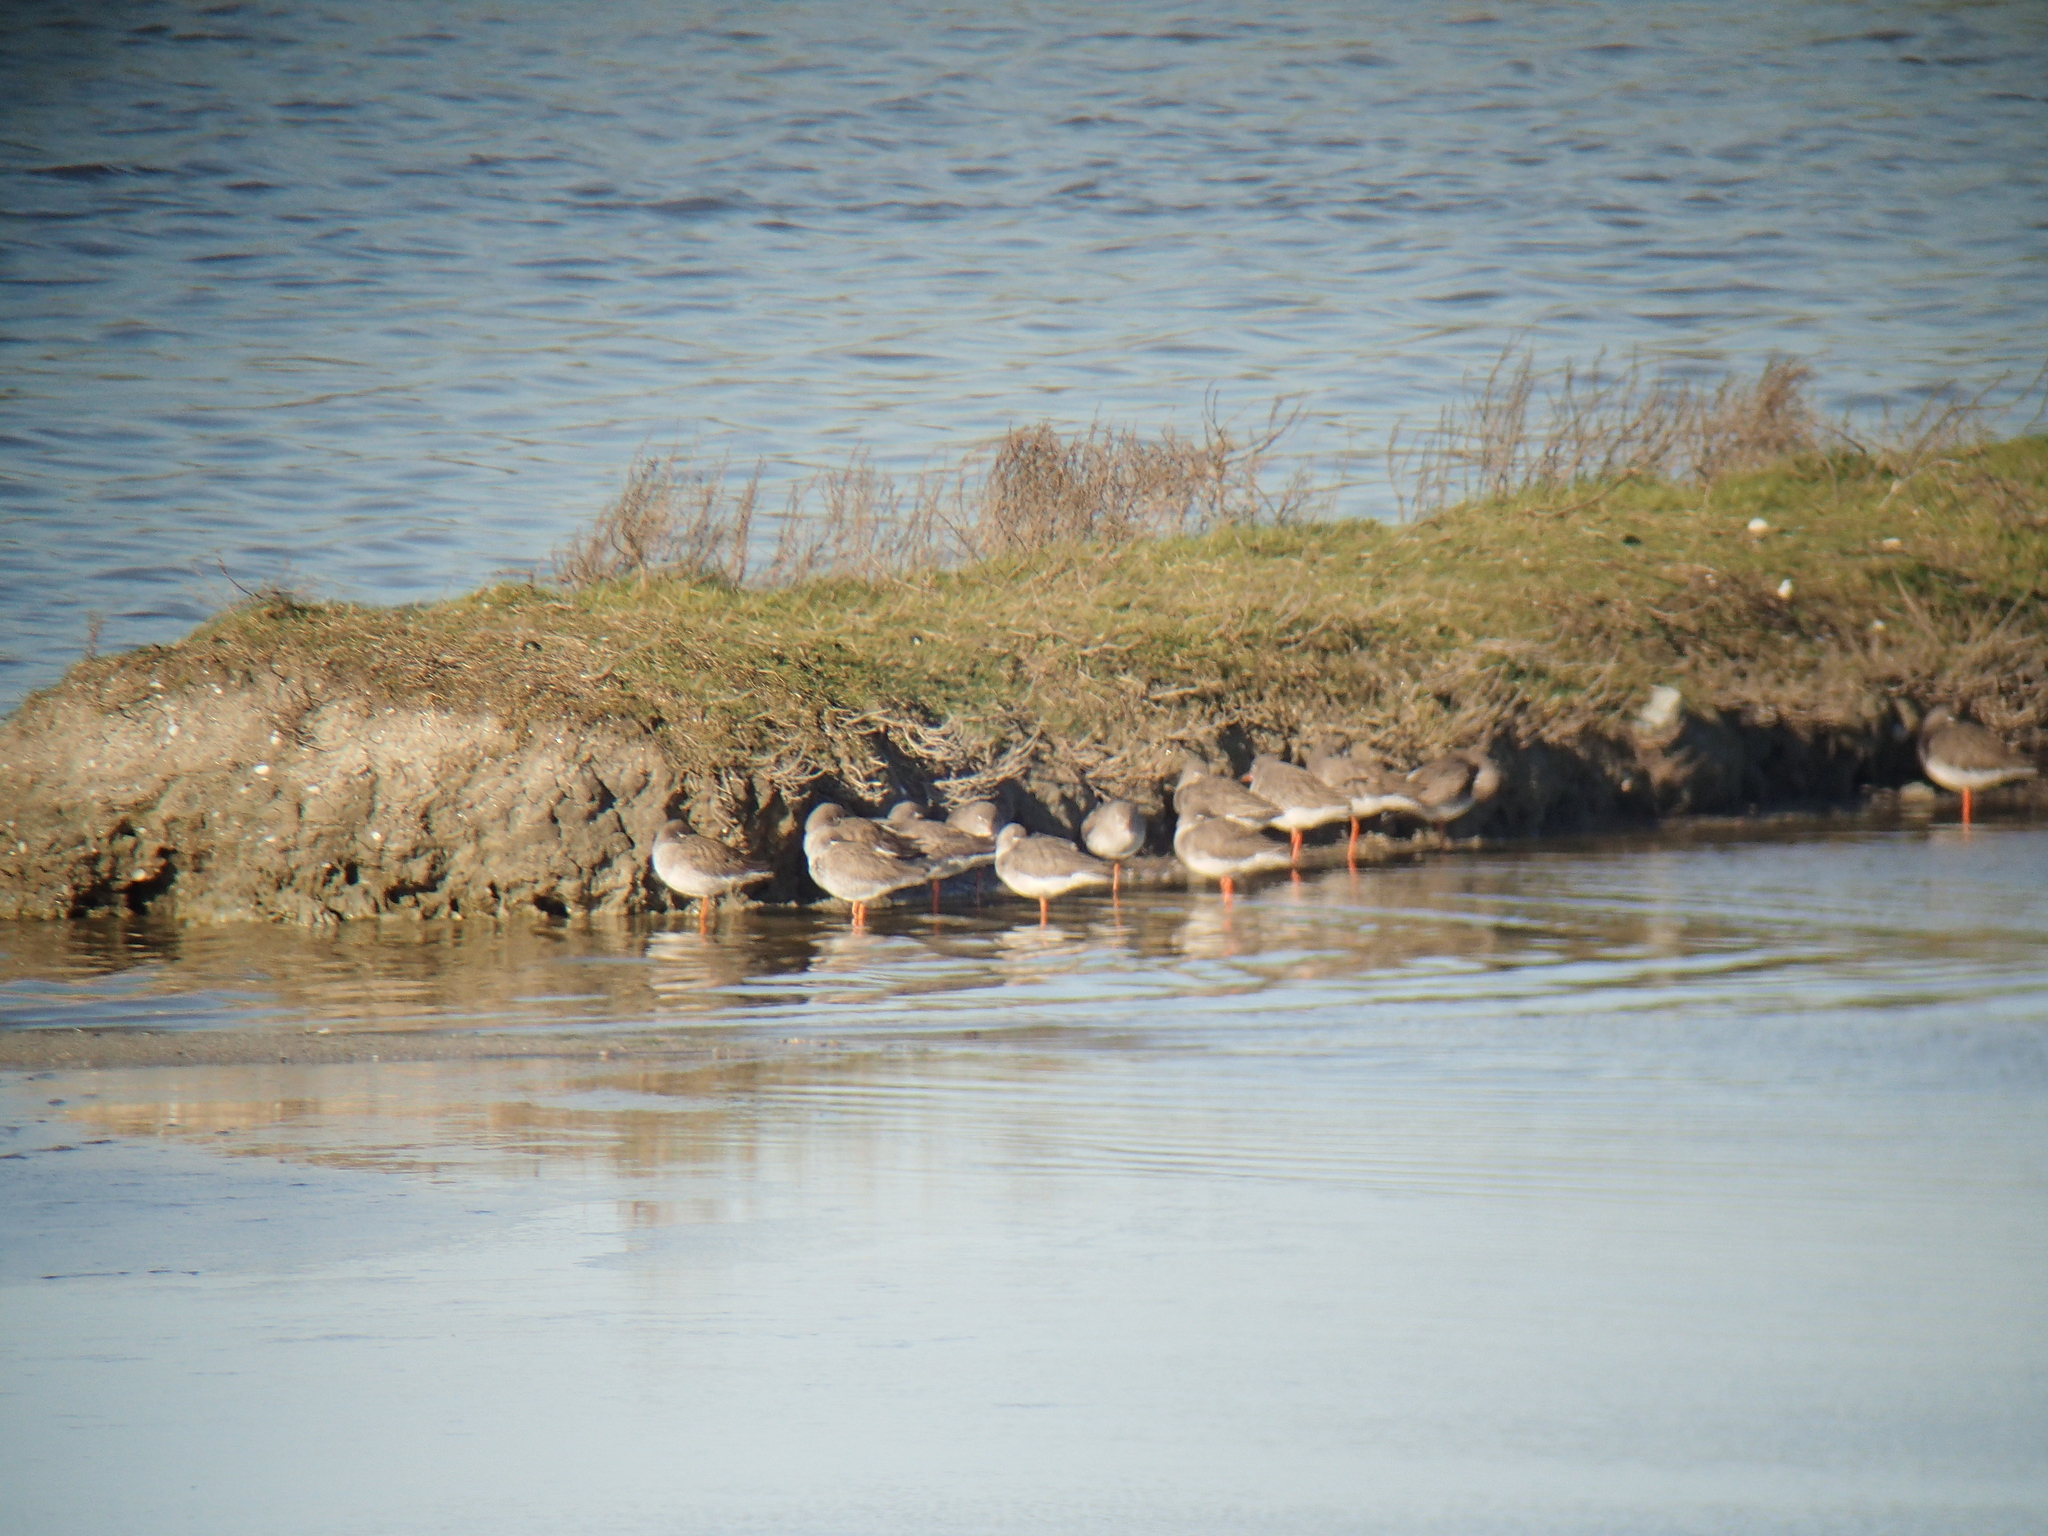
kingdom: Animalia
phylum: Chordata
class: Aves
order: Charadriiformes
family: Scolopacidae
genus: Tringa
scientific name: Tringa totanus
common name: Common redshank
